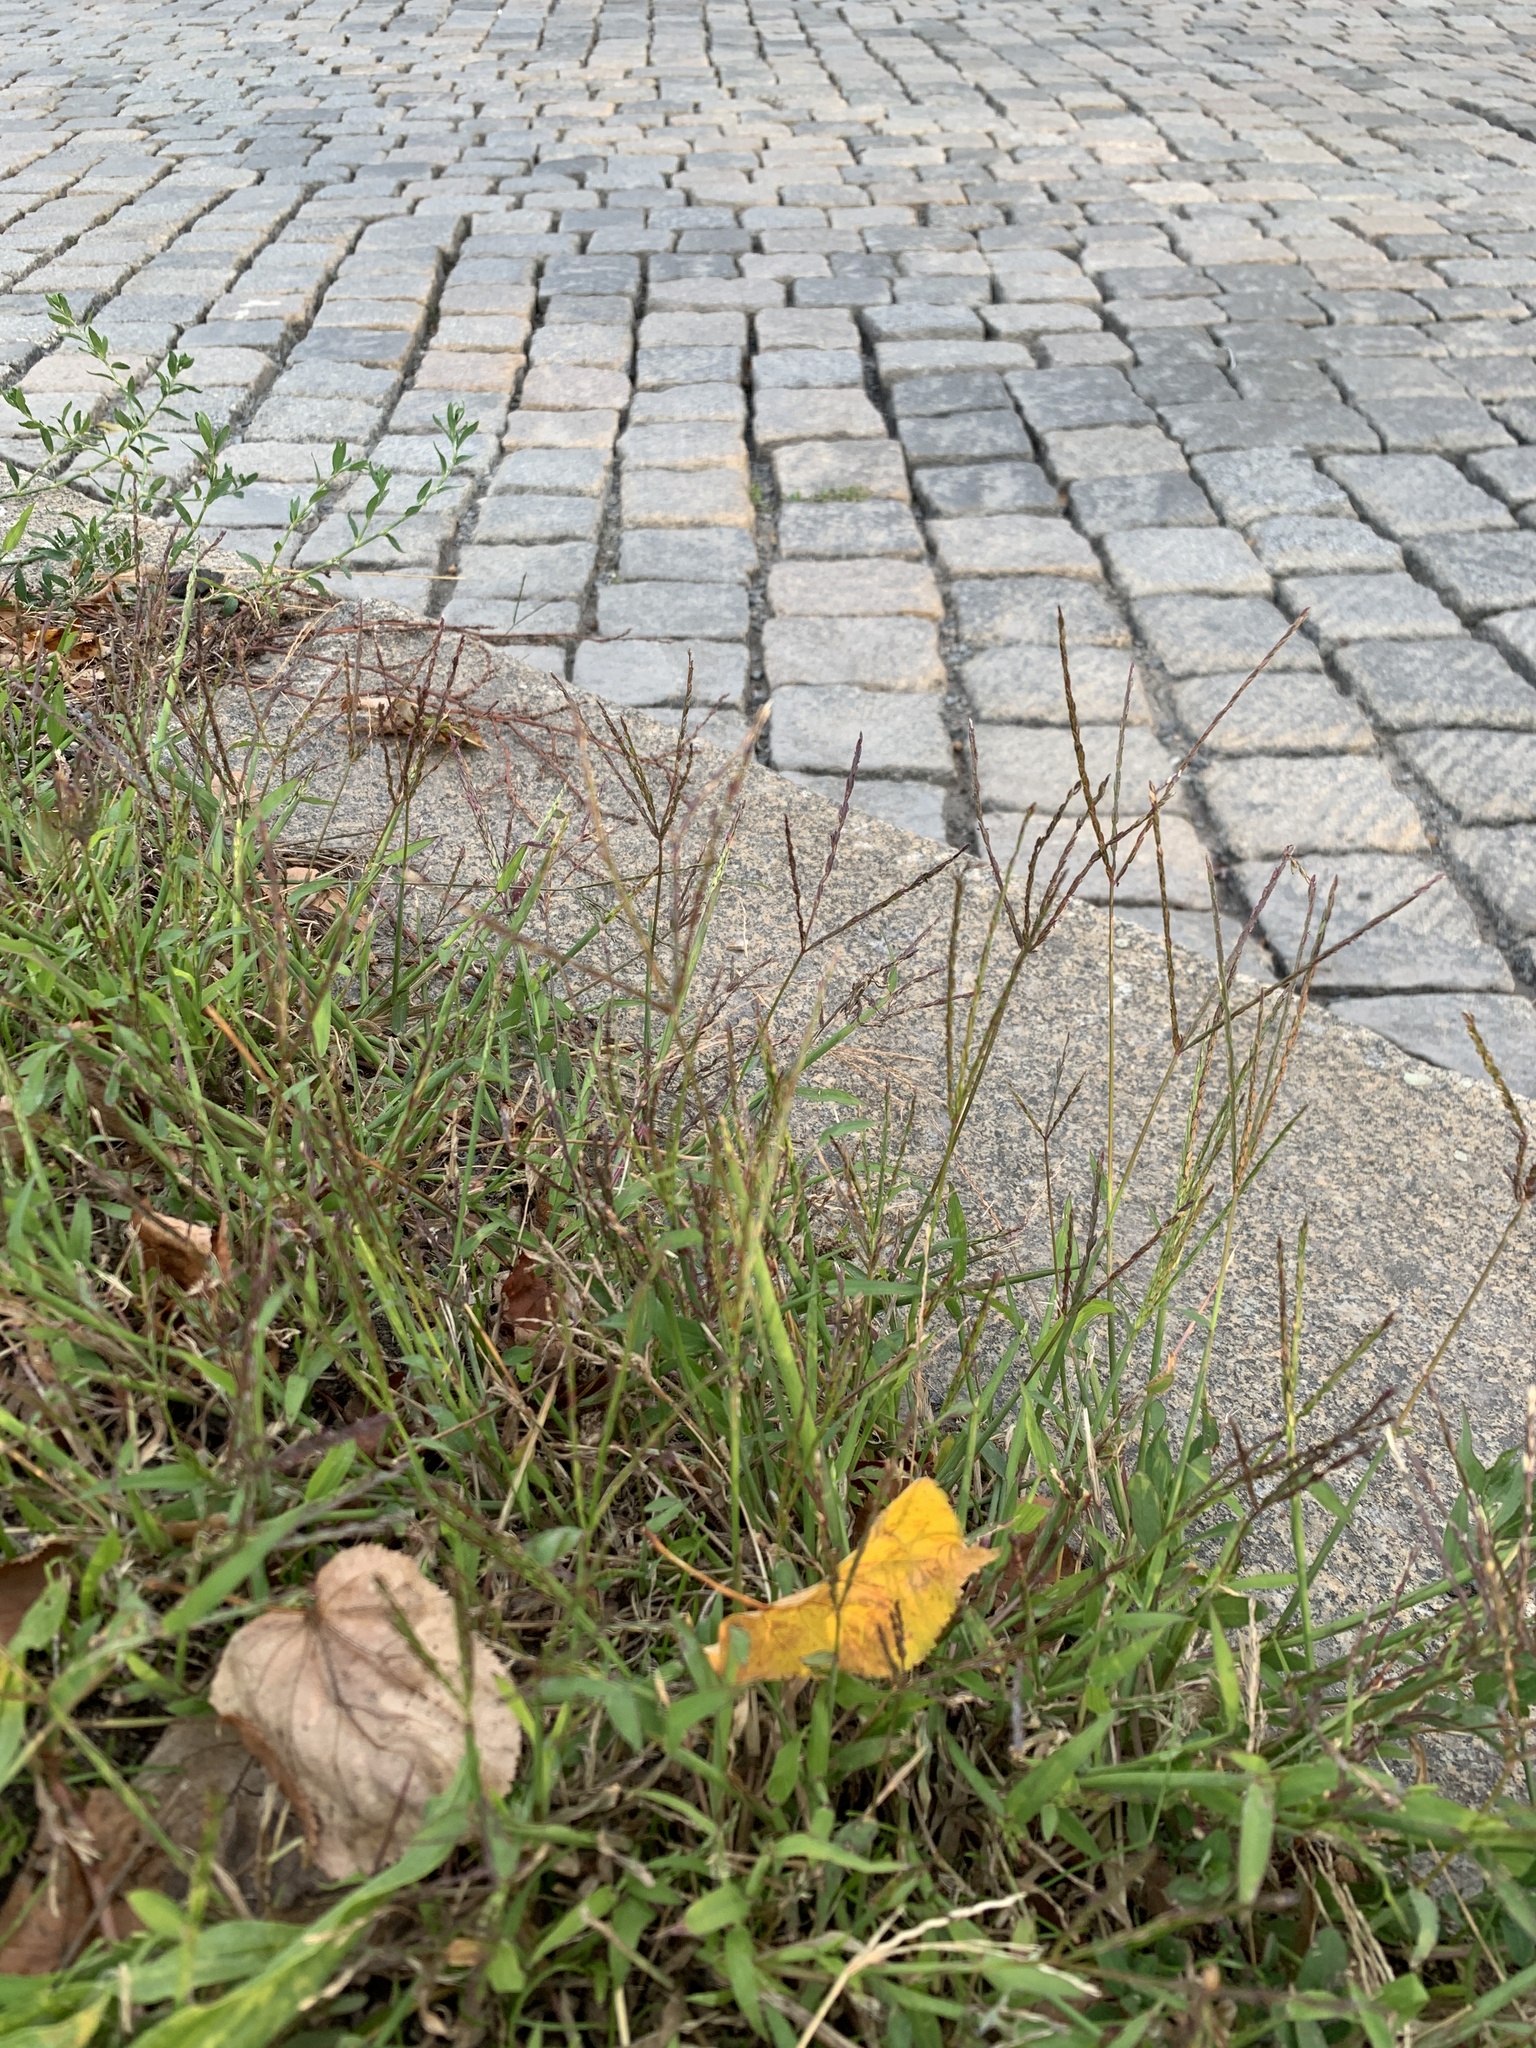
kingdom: Plantae
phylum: Tracheophyta
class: Liliopsida
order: Poales
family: Poaceae
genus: Digitaria
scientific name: Digitaria sanguinalis
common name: Hairy crabgrass
